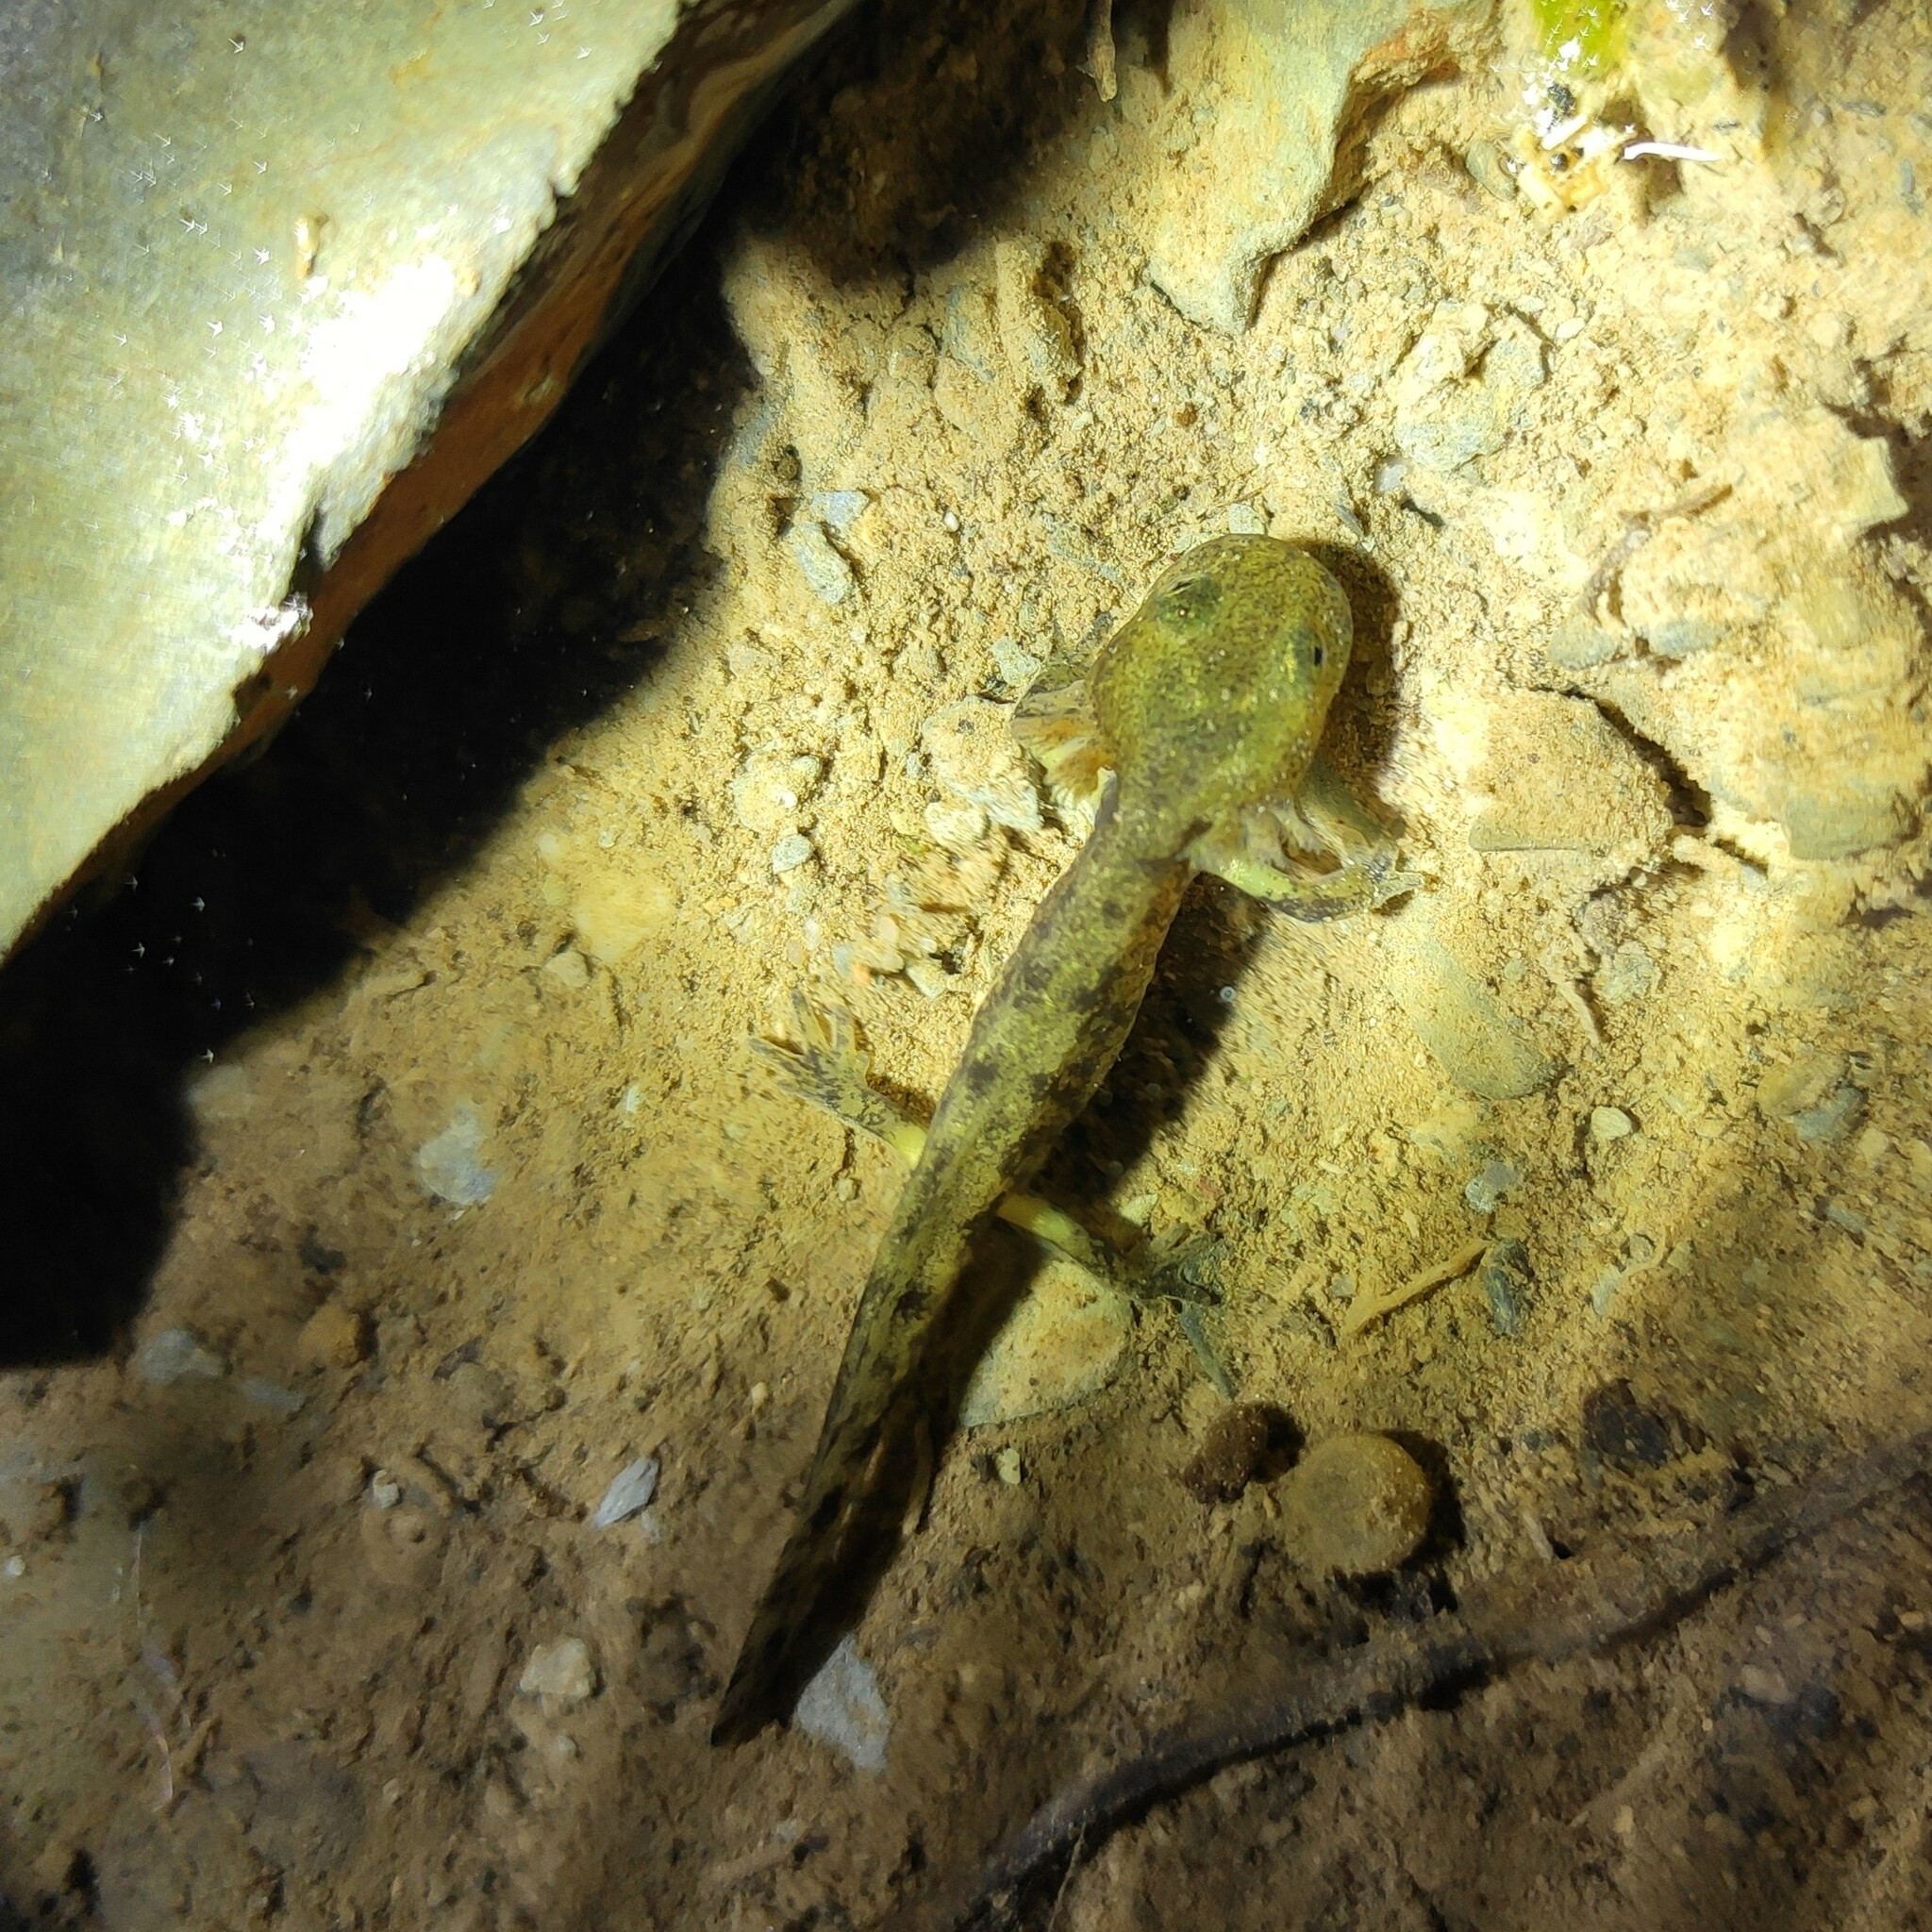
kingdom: Animalia
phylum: Chordata
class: Amphibia
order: Caudata
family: Salamandridae
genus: Salamandra
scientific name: Salamandra salamandra
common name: Fire salamander
